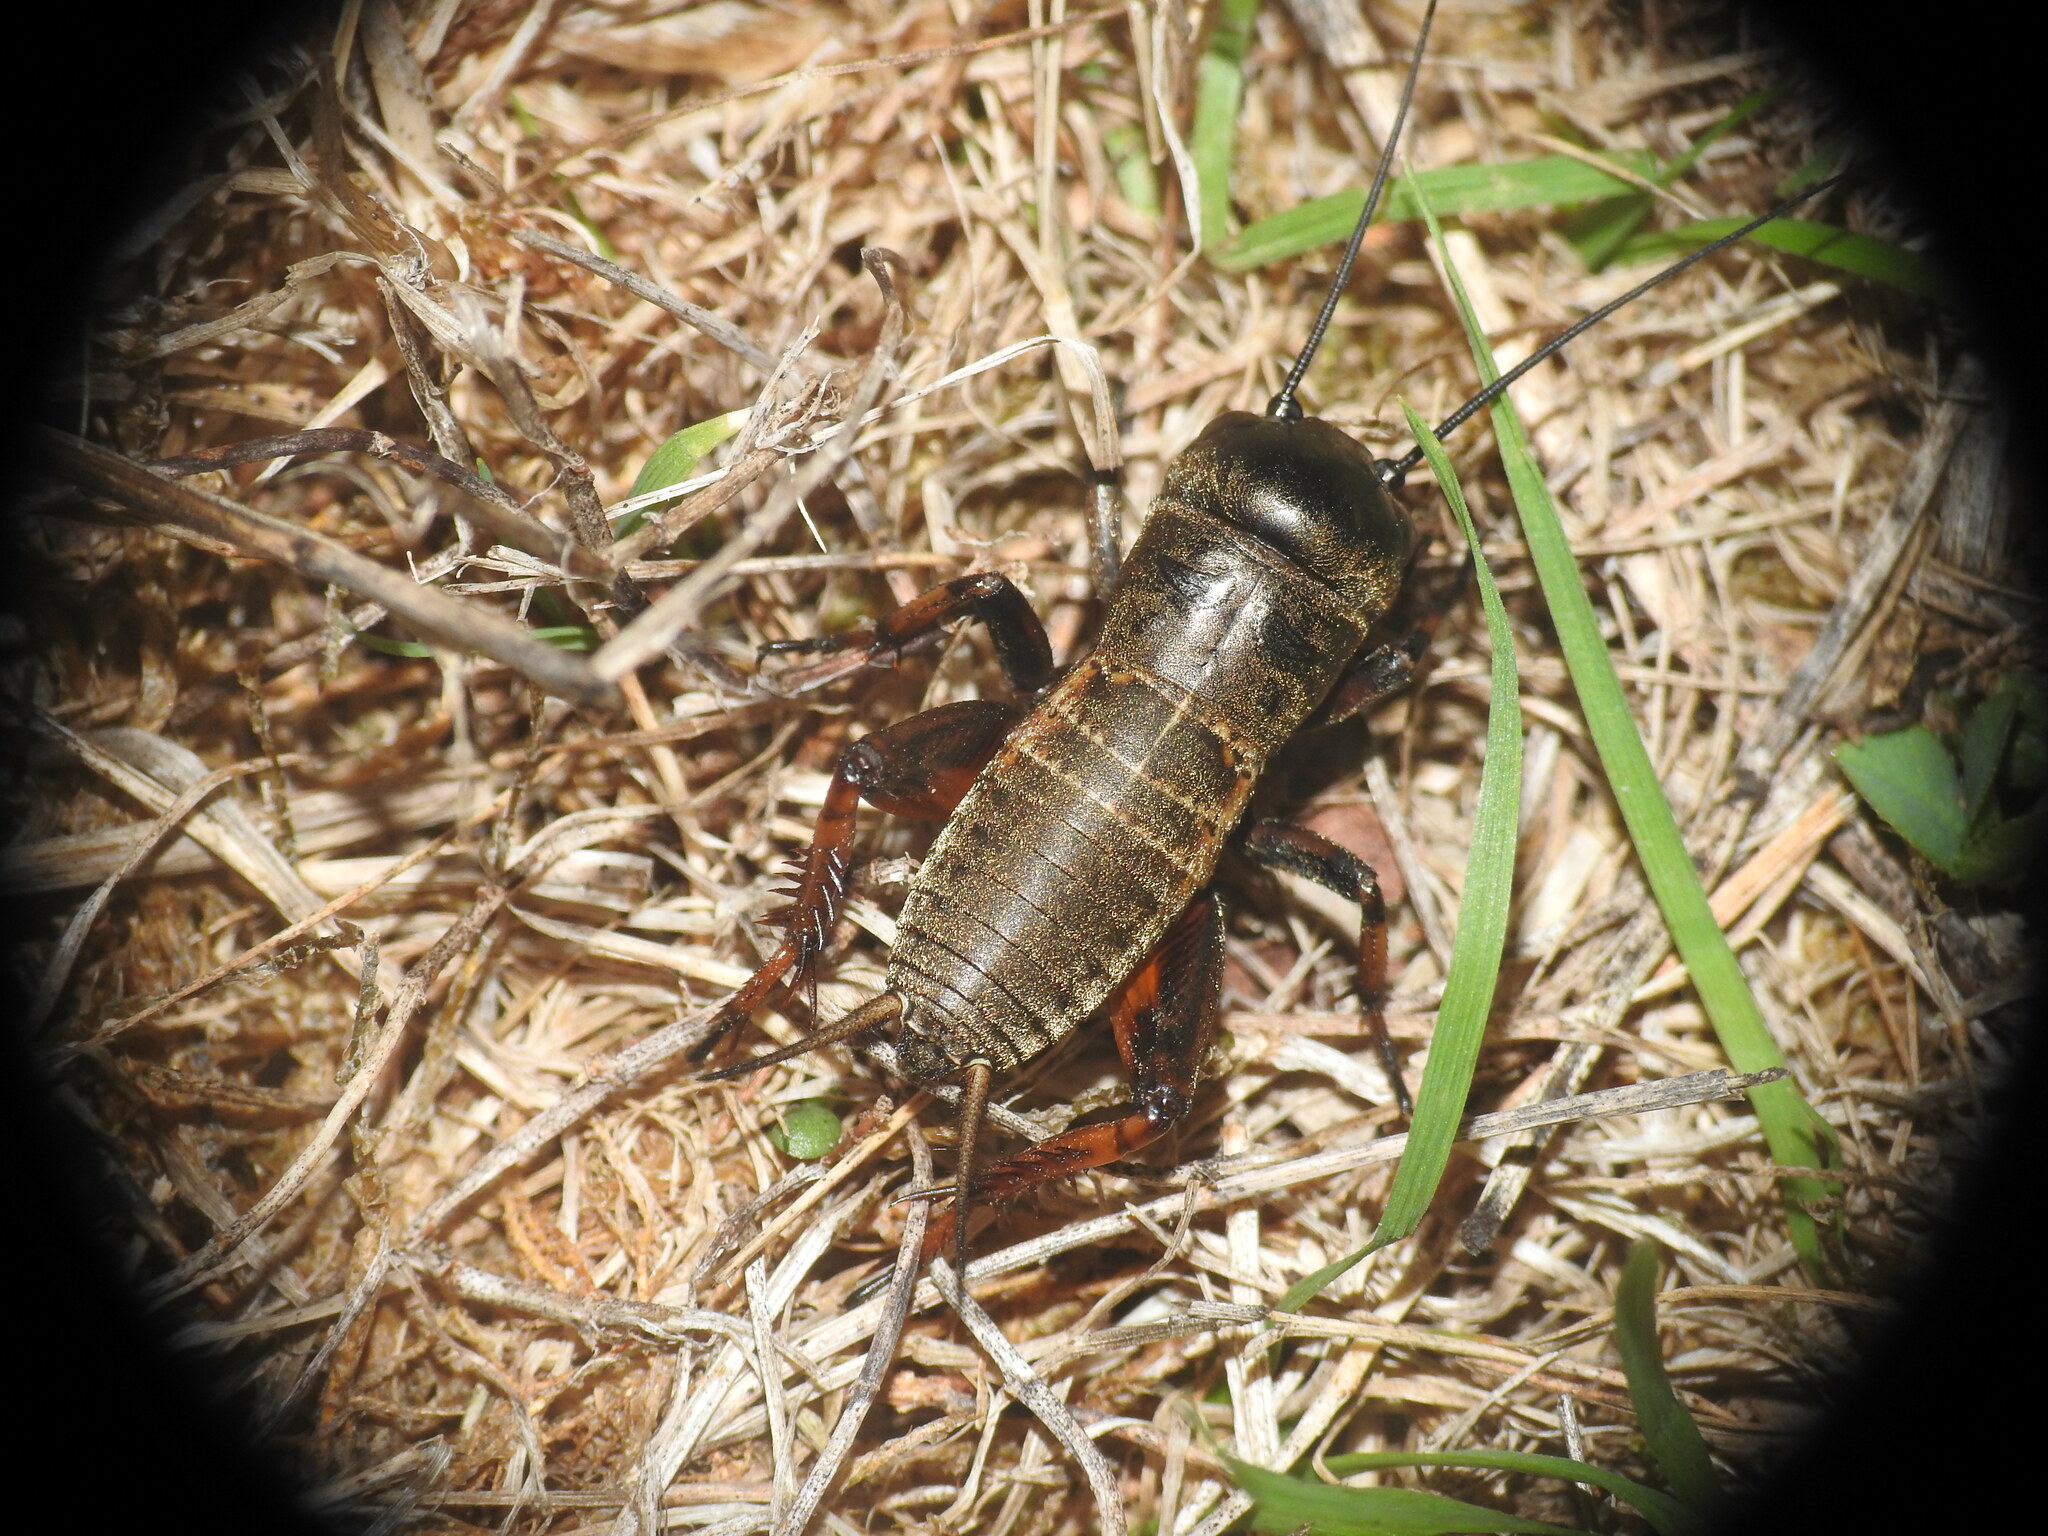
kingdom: Animalia
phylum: Arthropoda
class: Insecta
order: Orthoptera
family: Gryllidae
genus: Gryllus
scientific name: Gryllus campestris
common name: Field cricket
